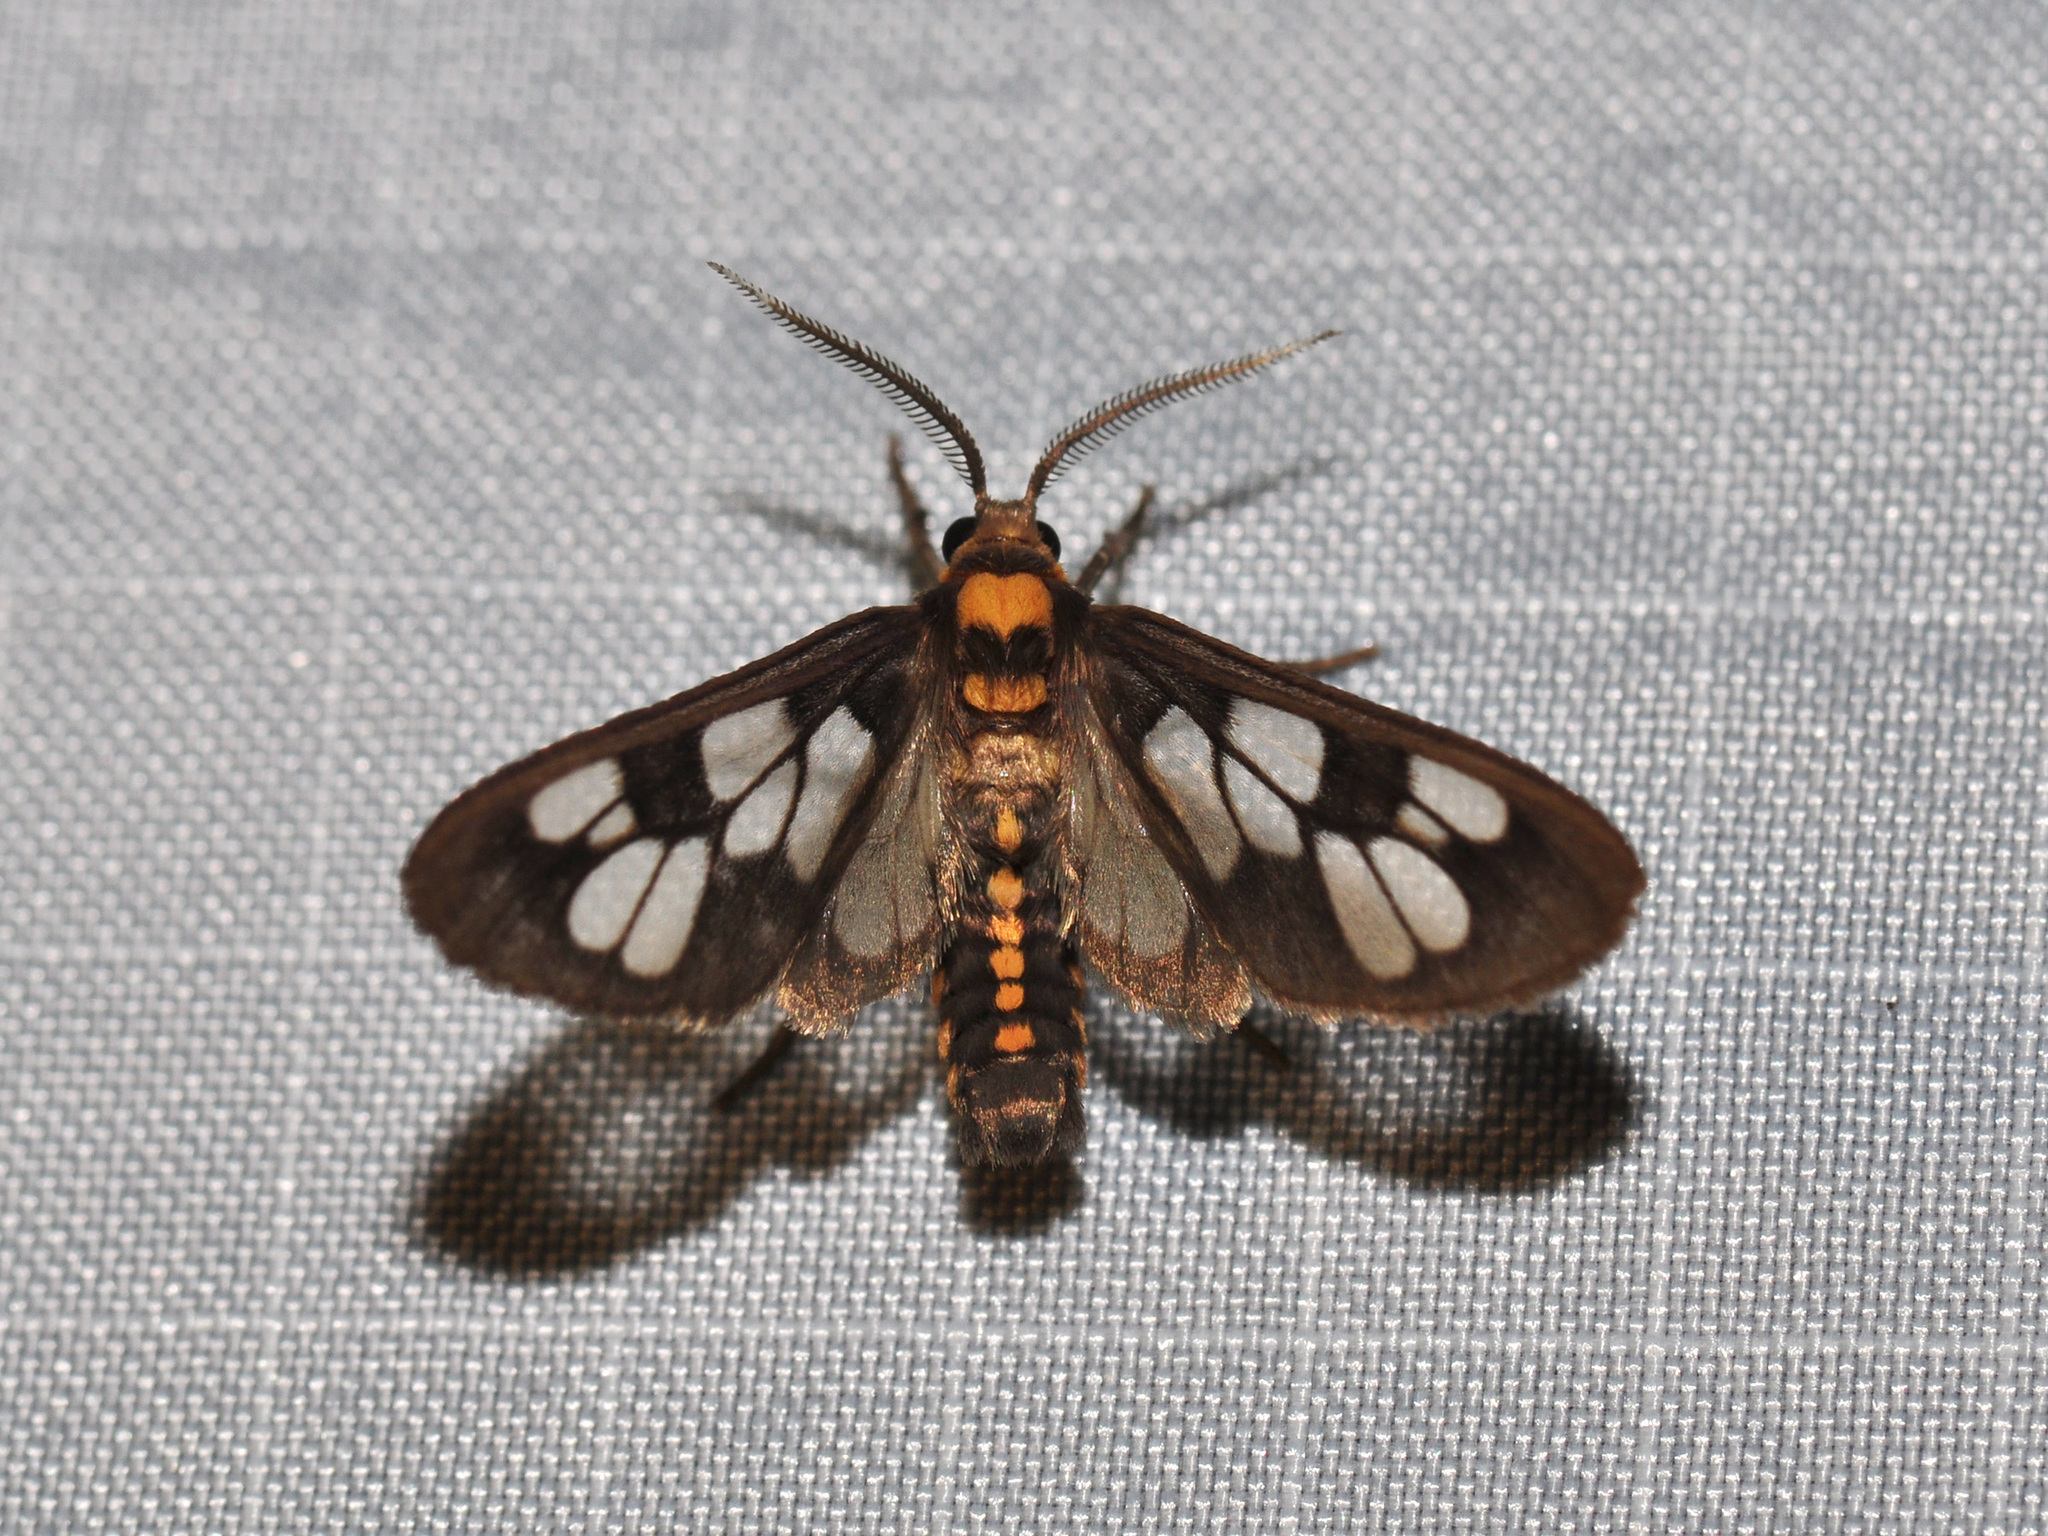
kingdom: Animalia
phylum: Arthropoda
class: Insecta
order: Lepidoptera
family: Erebidae
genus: Eressa
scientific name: Eressa confinis
